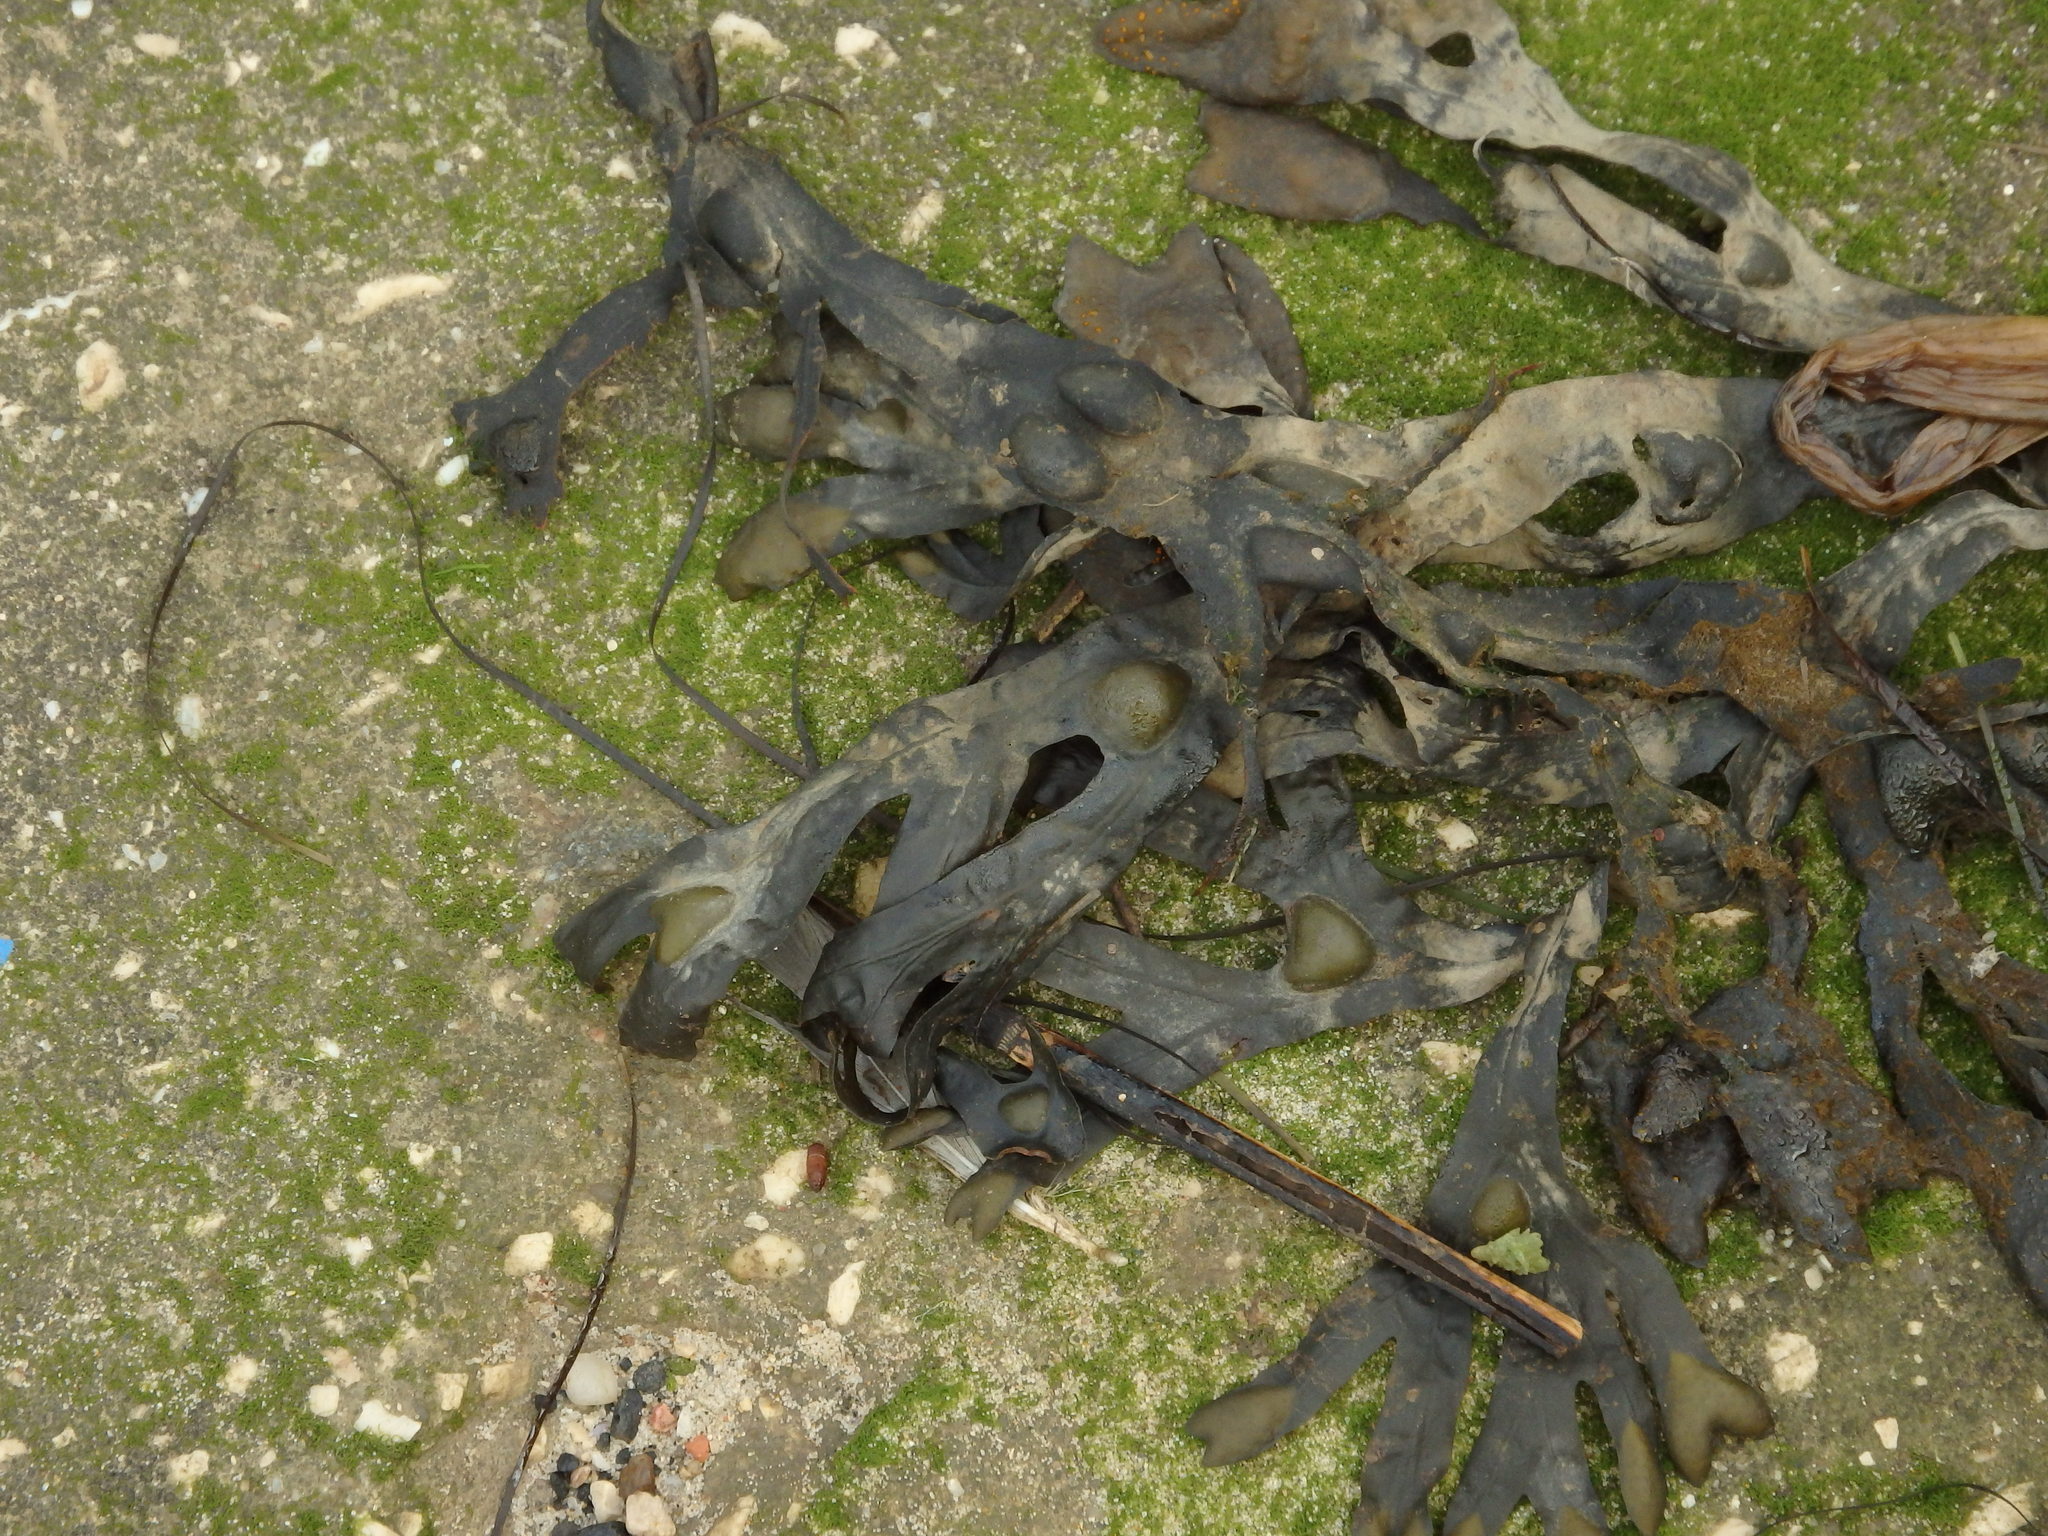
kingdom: Chromista
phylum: Ochrophyta
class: Phaeophyceae
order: Fucales
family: Fucaceae
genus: Fucus
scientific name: Fucus vesiculosus
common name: Bladder wrack
